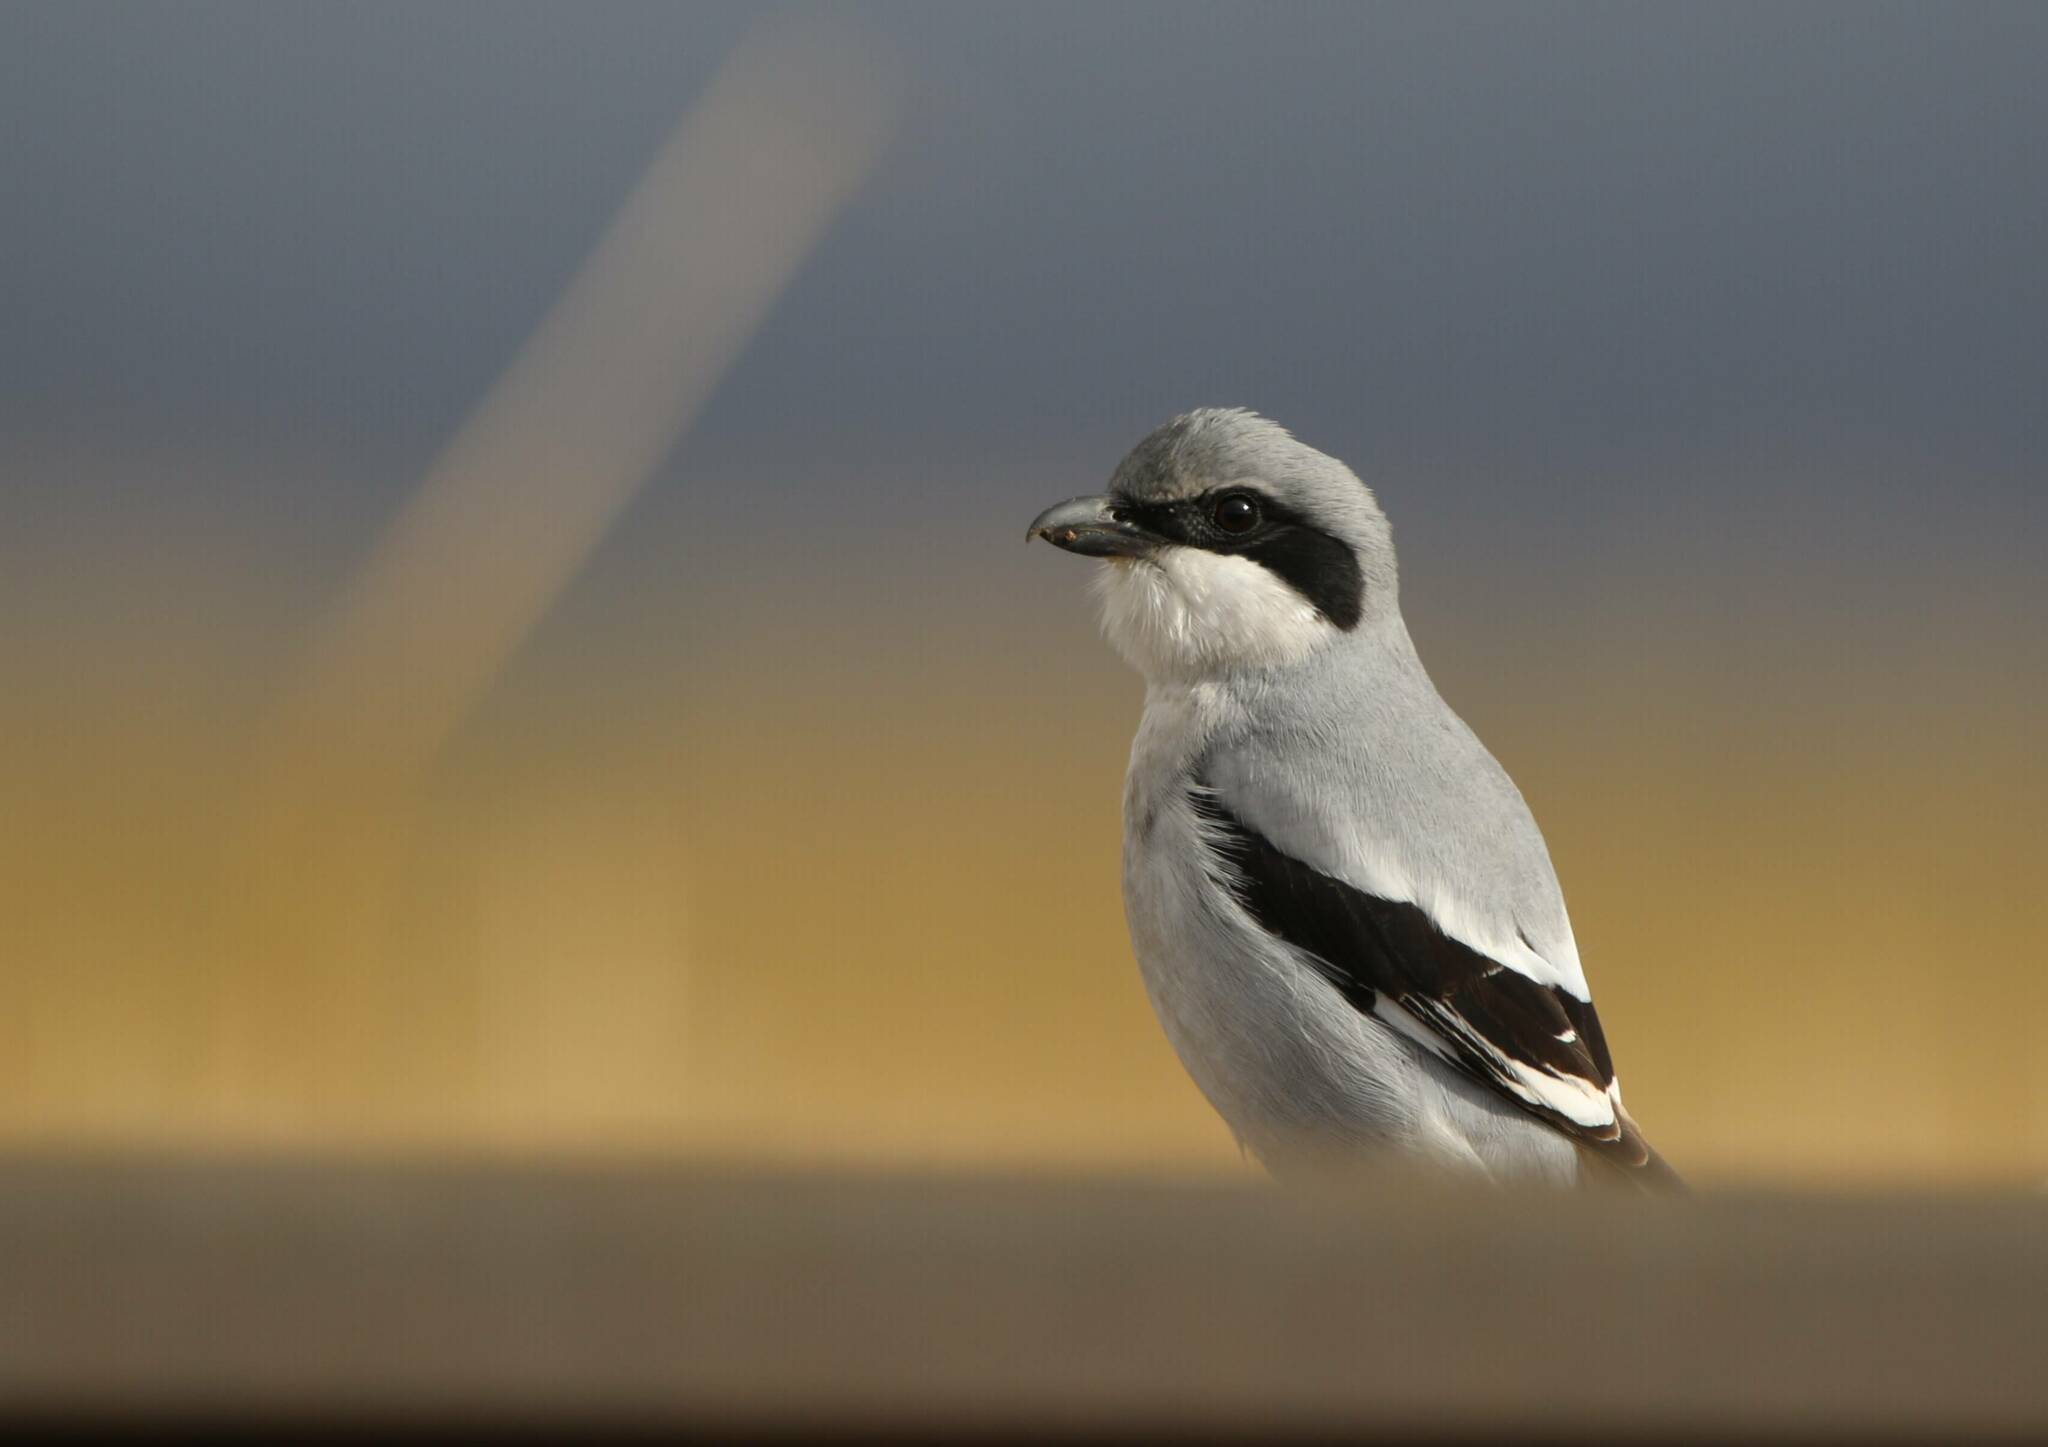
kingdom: Animalia
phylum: Chordata
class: Aves
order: Passeriformes
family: Laniidae
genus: Lanius
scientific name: Lanius excubitor
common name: Great grey shrike
